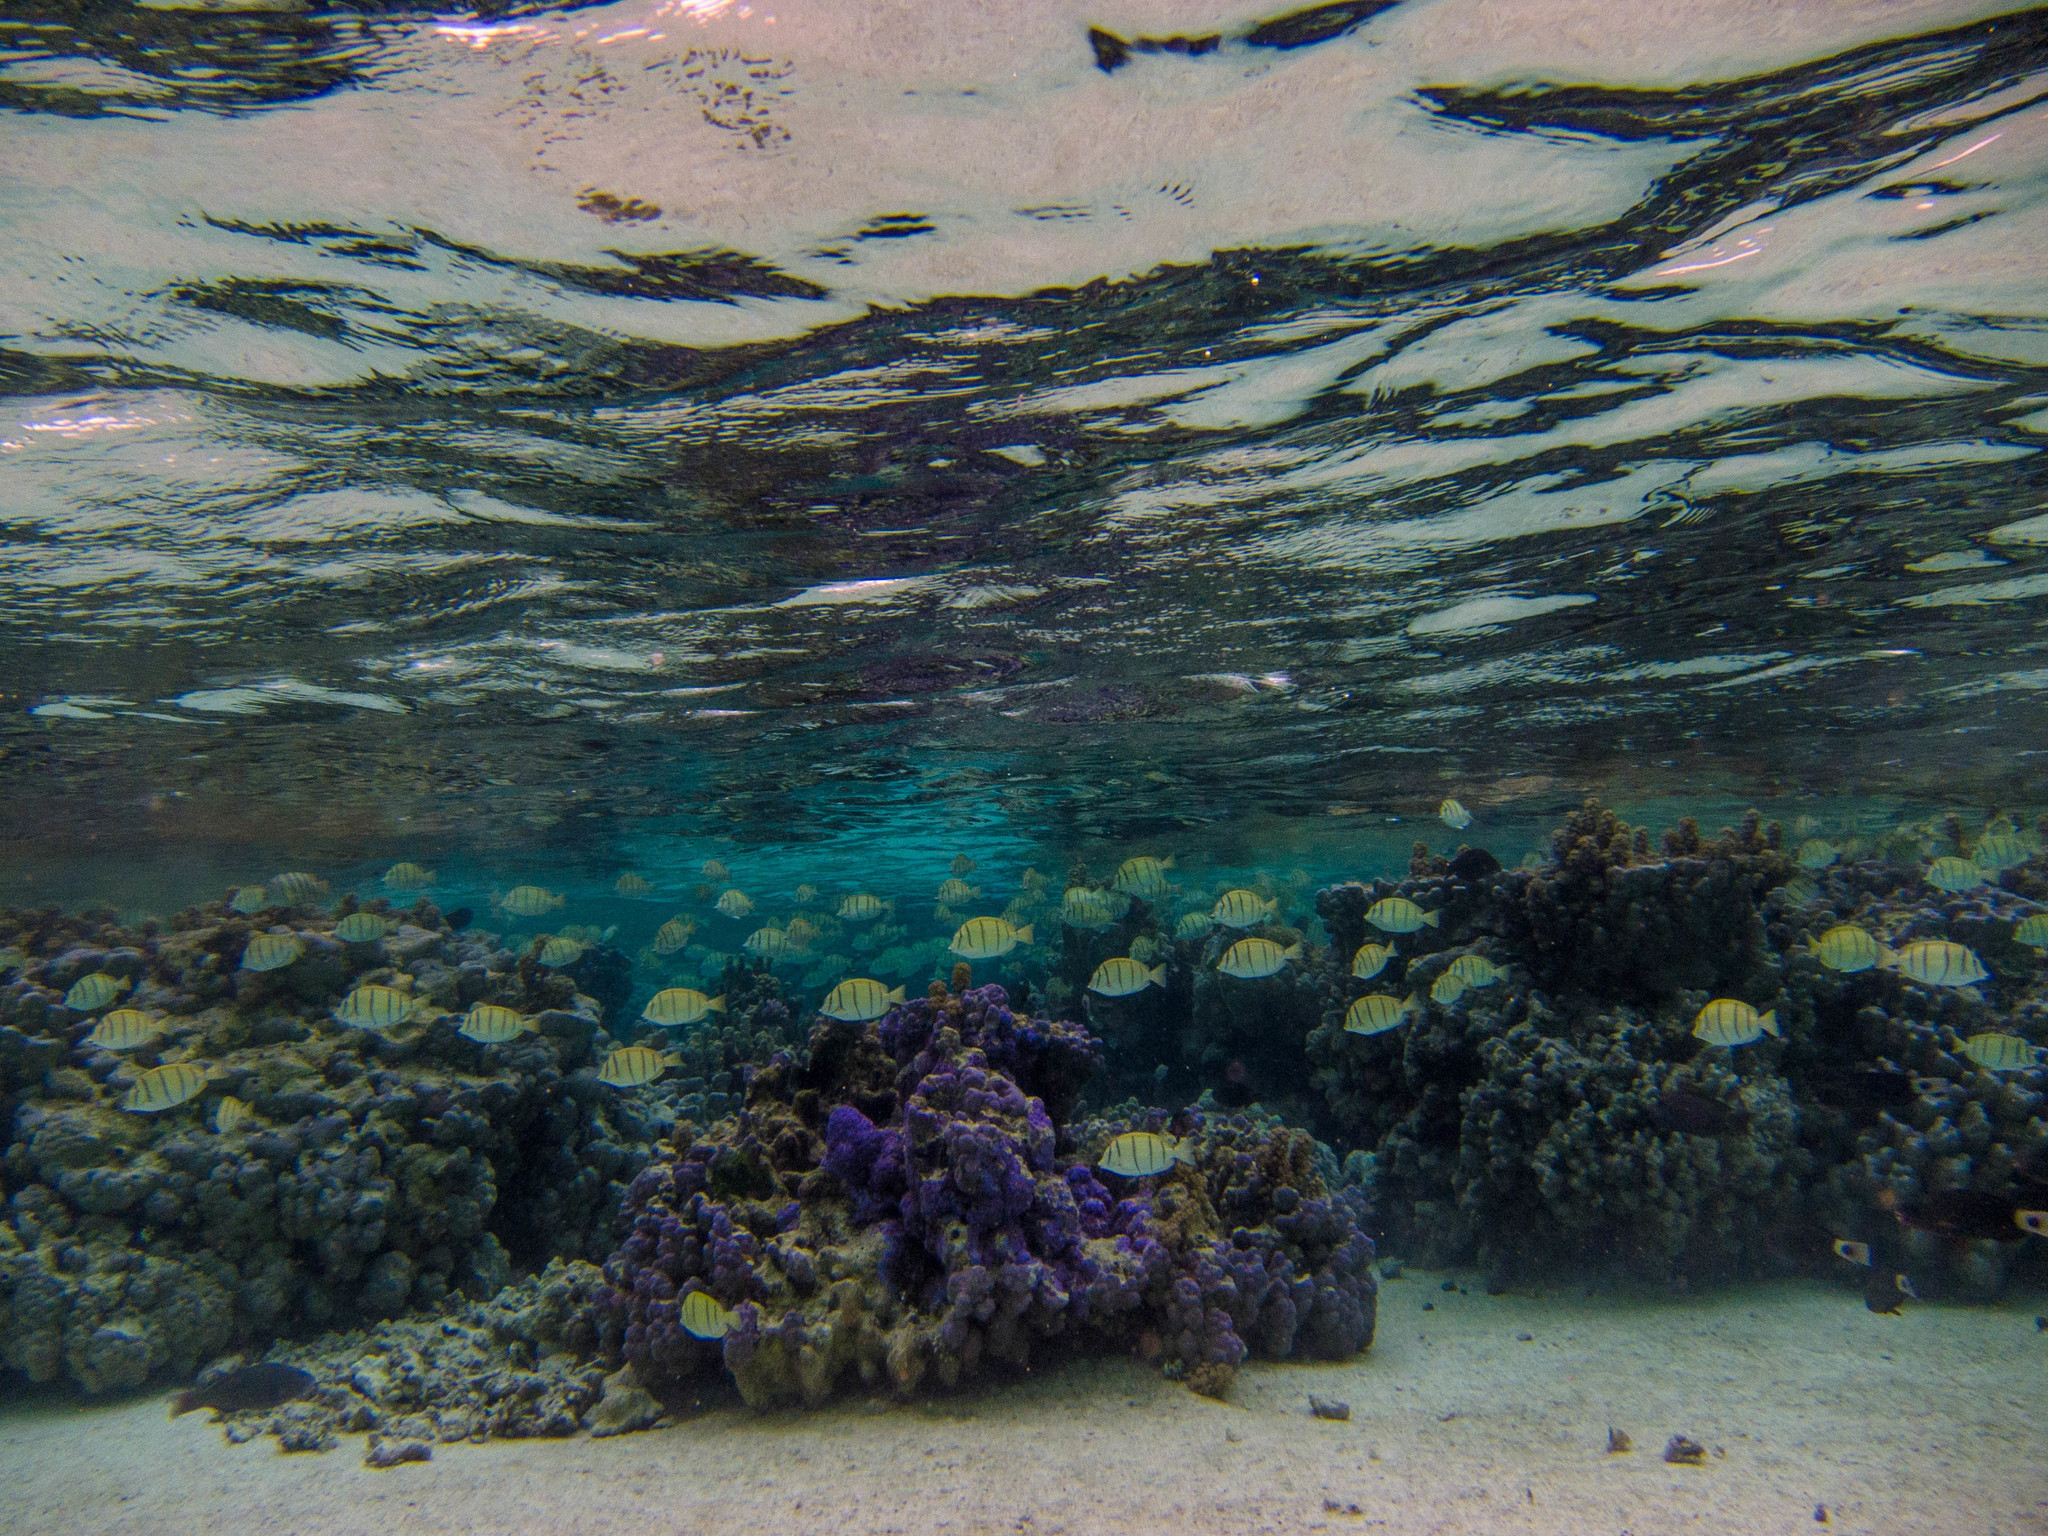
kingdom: Animalia
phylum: Chordata
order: Perciformes
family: Acanthuridae
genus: Acanthurus
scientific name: Acanthurus triostegus
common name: Convict surgeonfish
